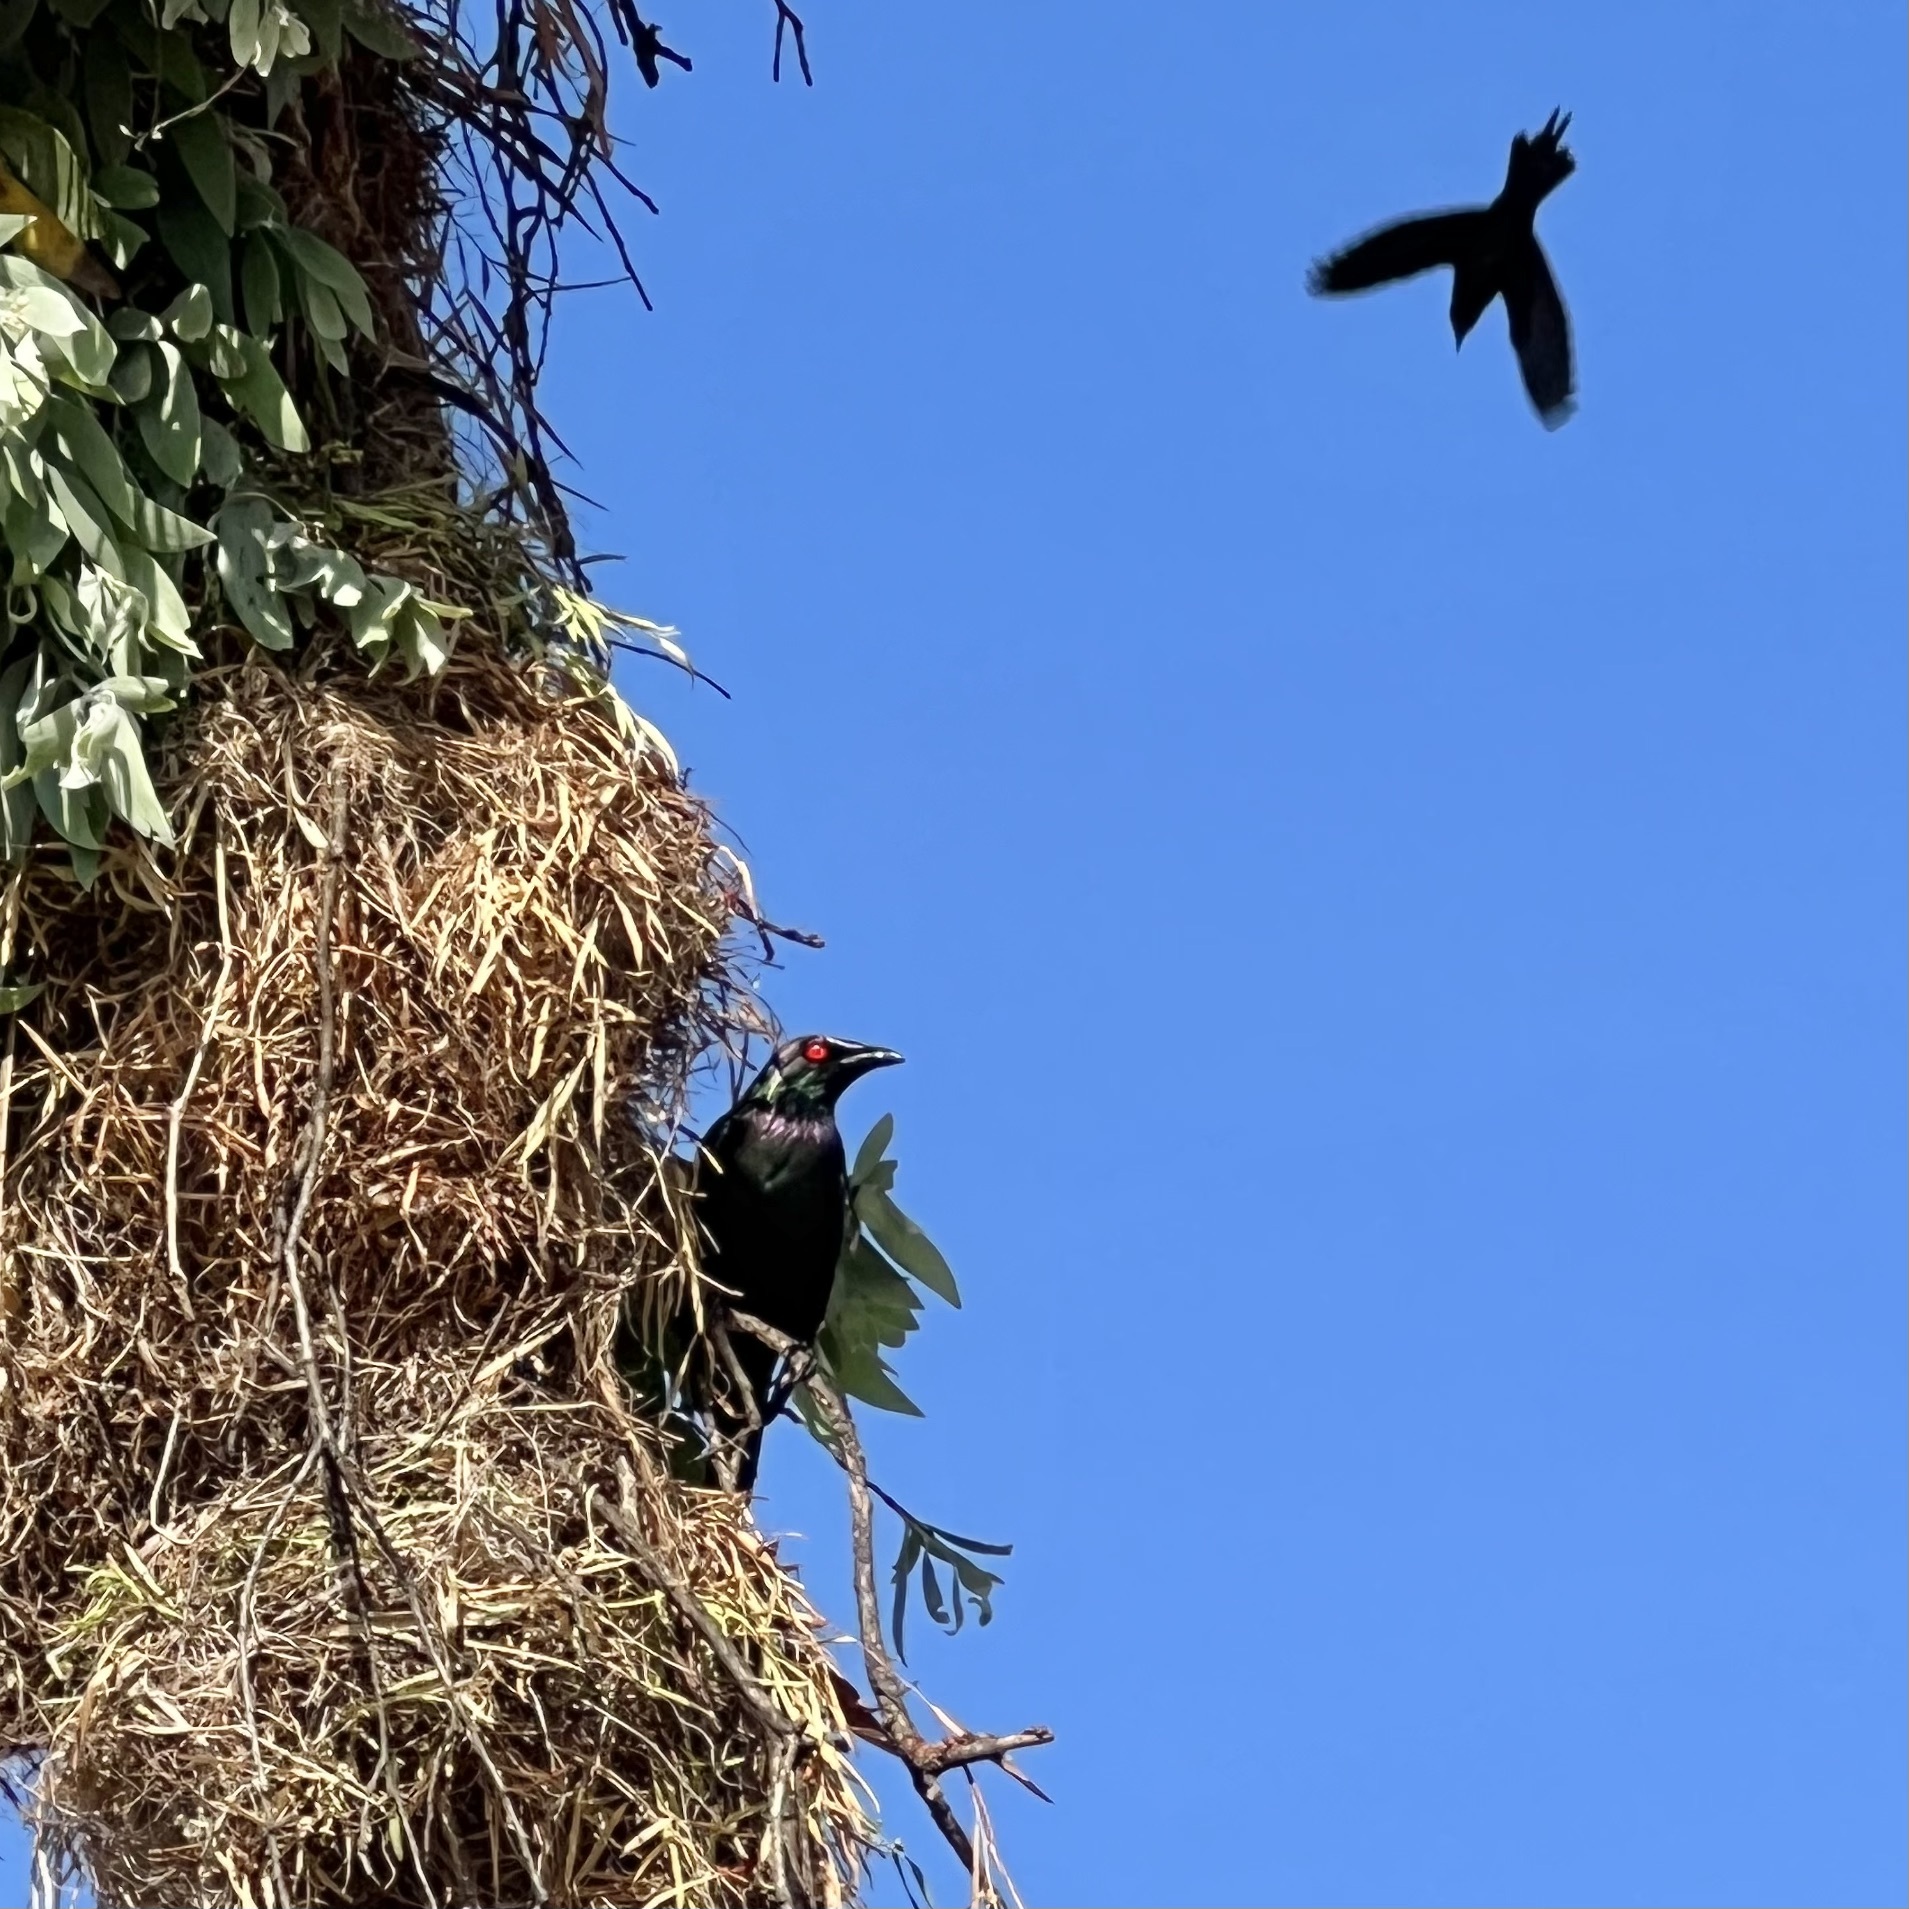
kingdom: Animalia
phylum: Chordata
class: Aves
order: Passeriformes
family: Sturnidae
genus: Aplonis
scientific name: Aplonis metallica
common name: Metallic starling
